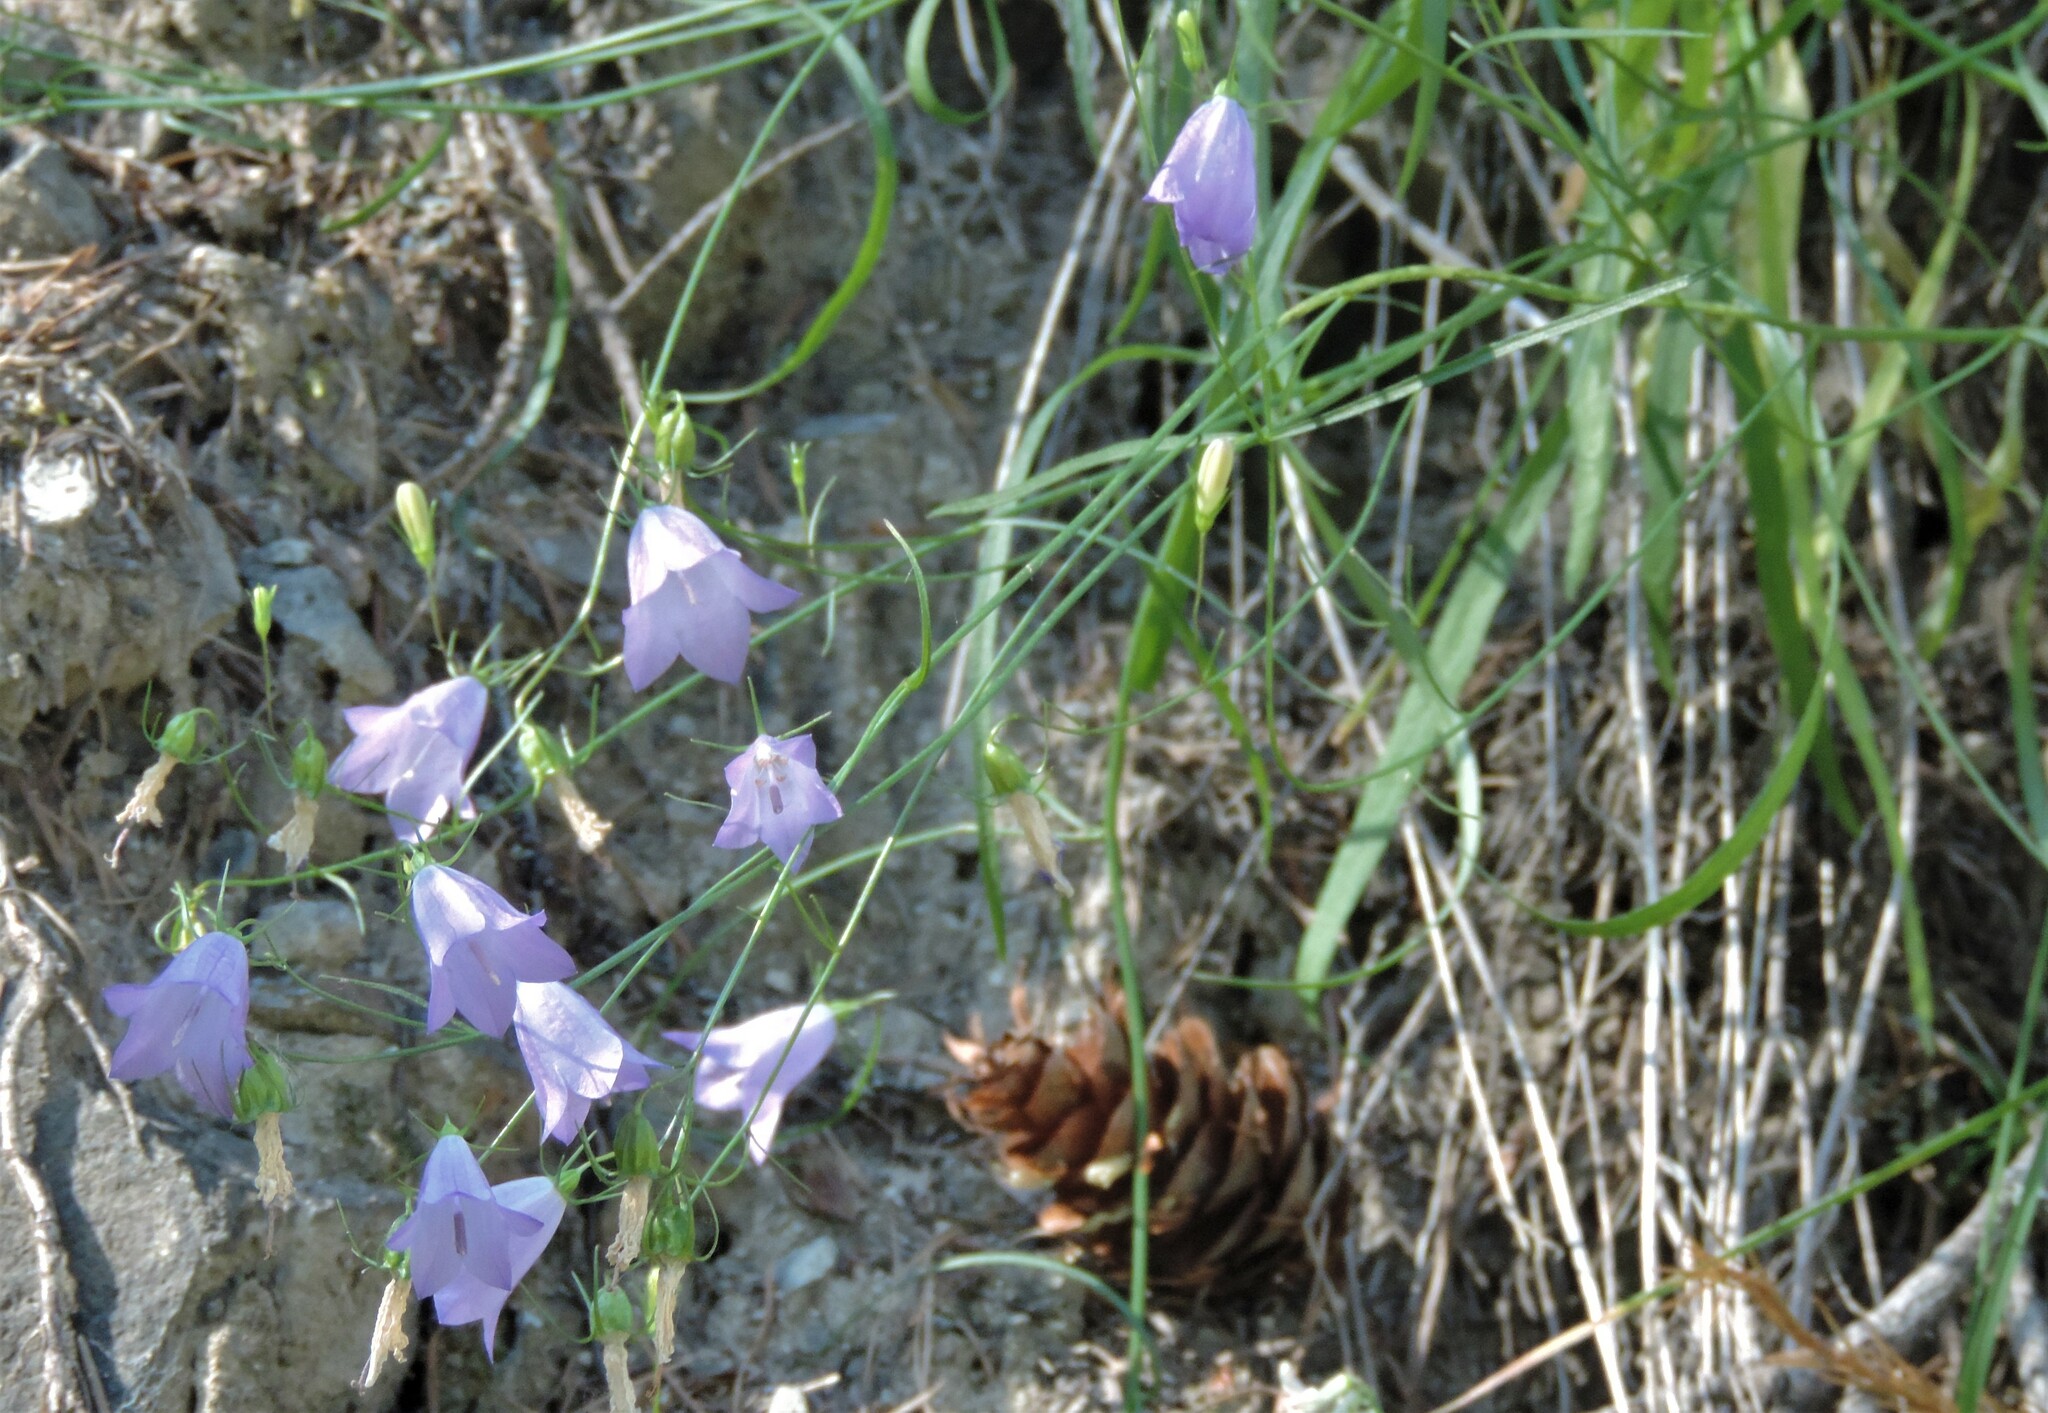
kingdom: Plantae
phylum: Tracheophyta
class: Magnoliopsida
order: Asterales
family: Campanulaceae
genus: Campanula
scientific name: Campanula alaskana
